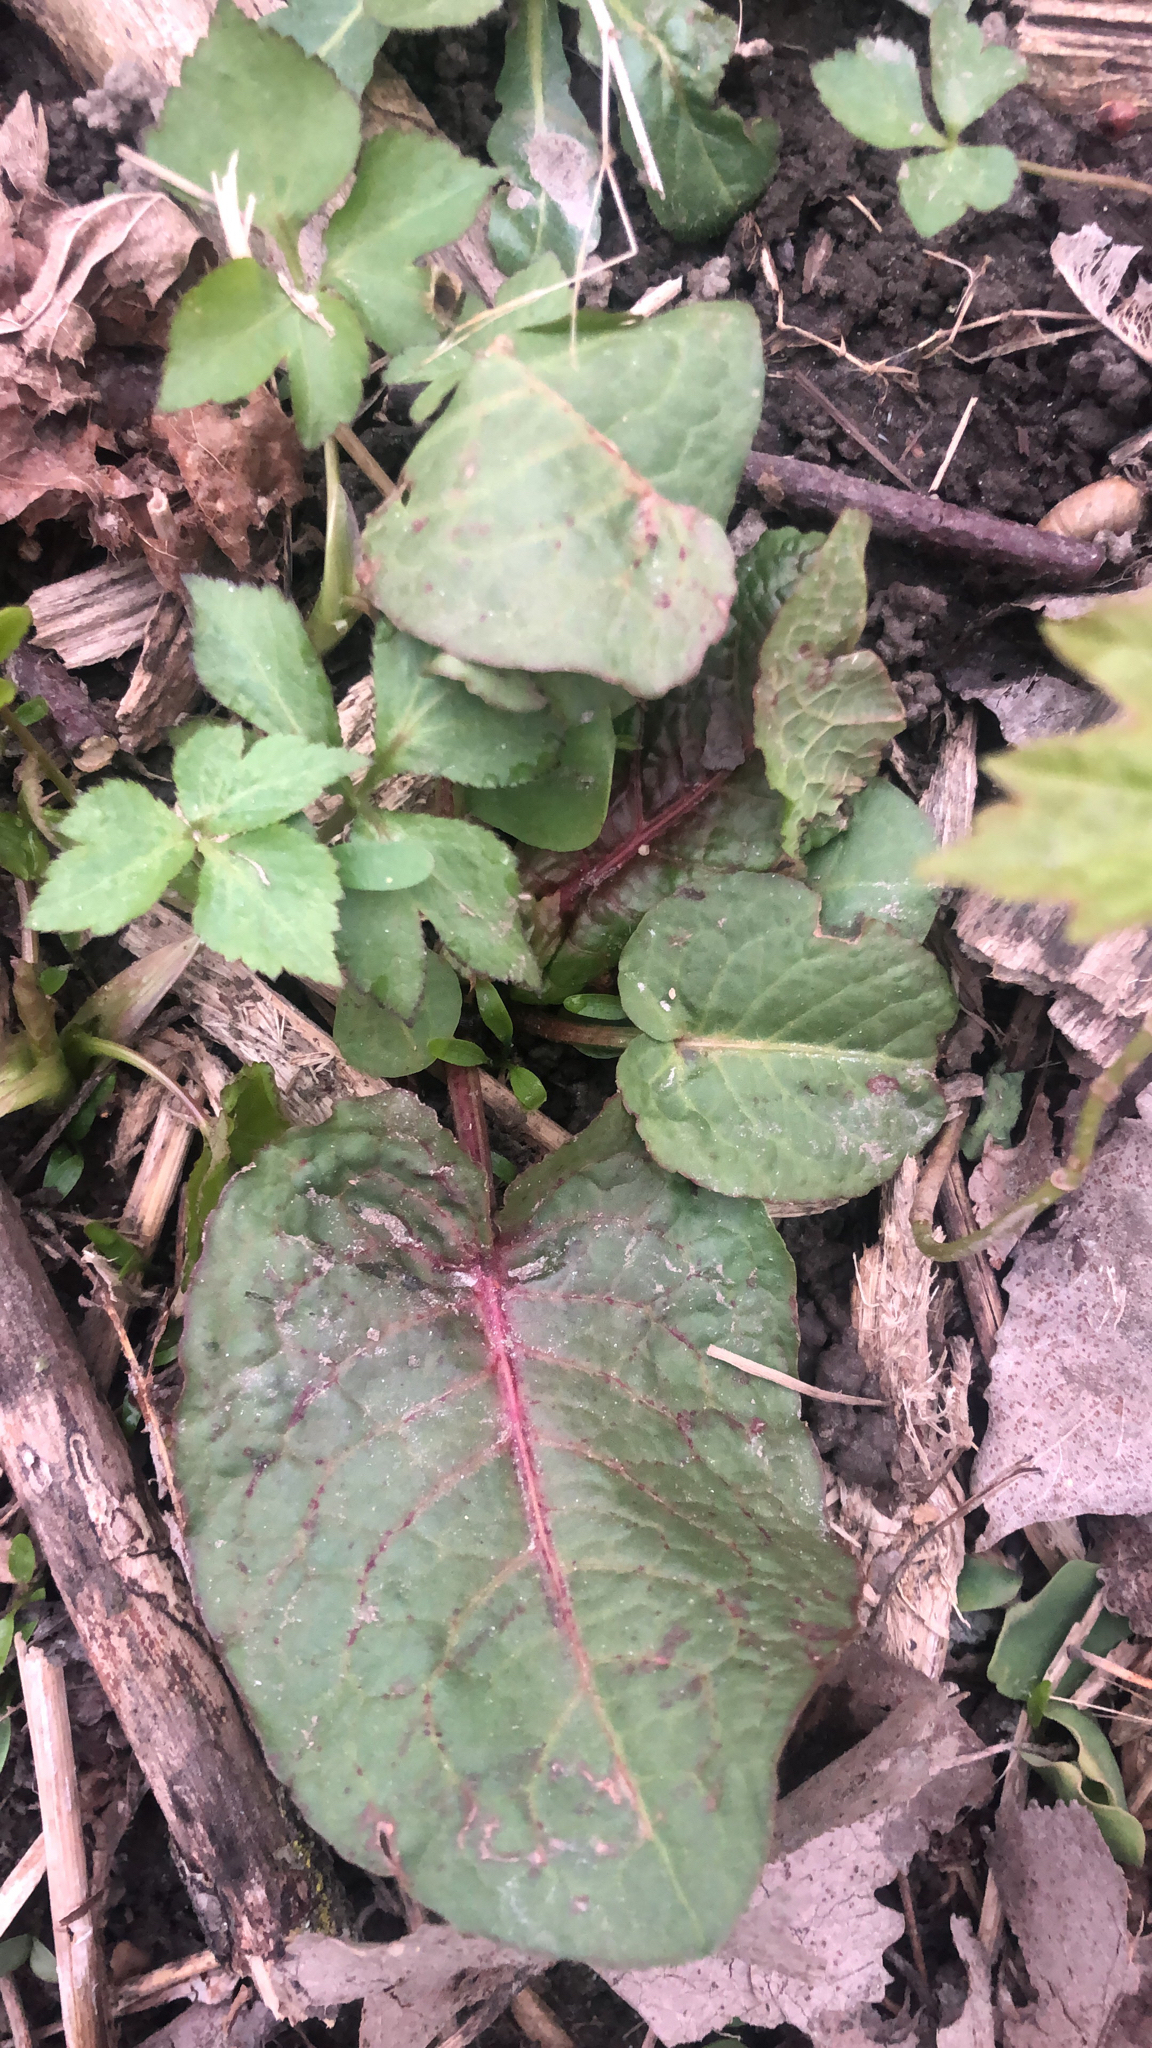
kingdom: Plantae
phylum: Tracheophyta
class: Magnoliopsida
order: Caryophyllales
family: Polygonaceae
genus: Rumex
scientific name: Rumex obtusifolius
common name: Bitter dock
